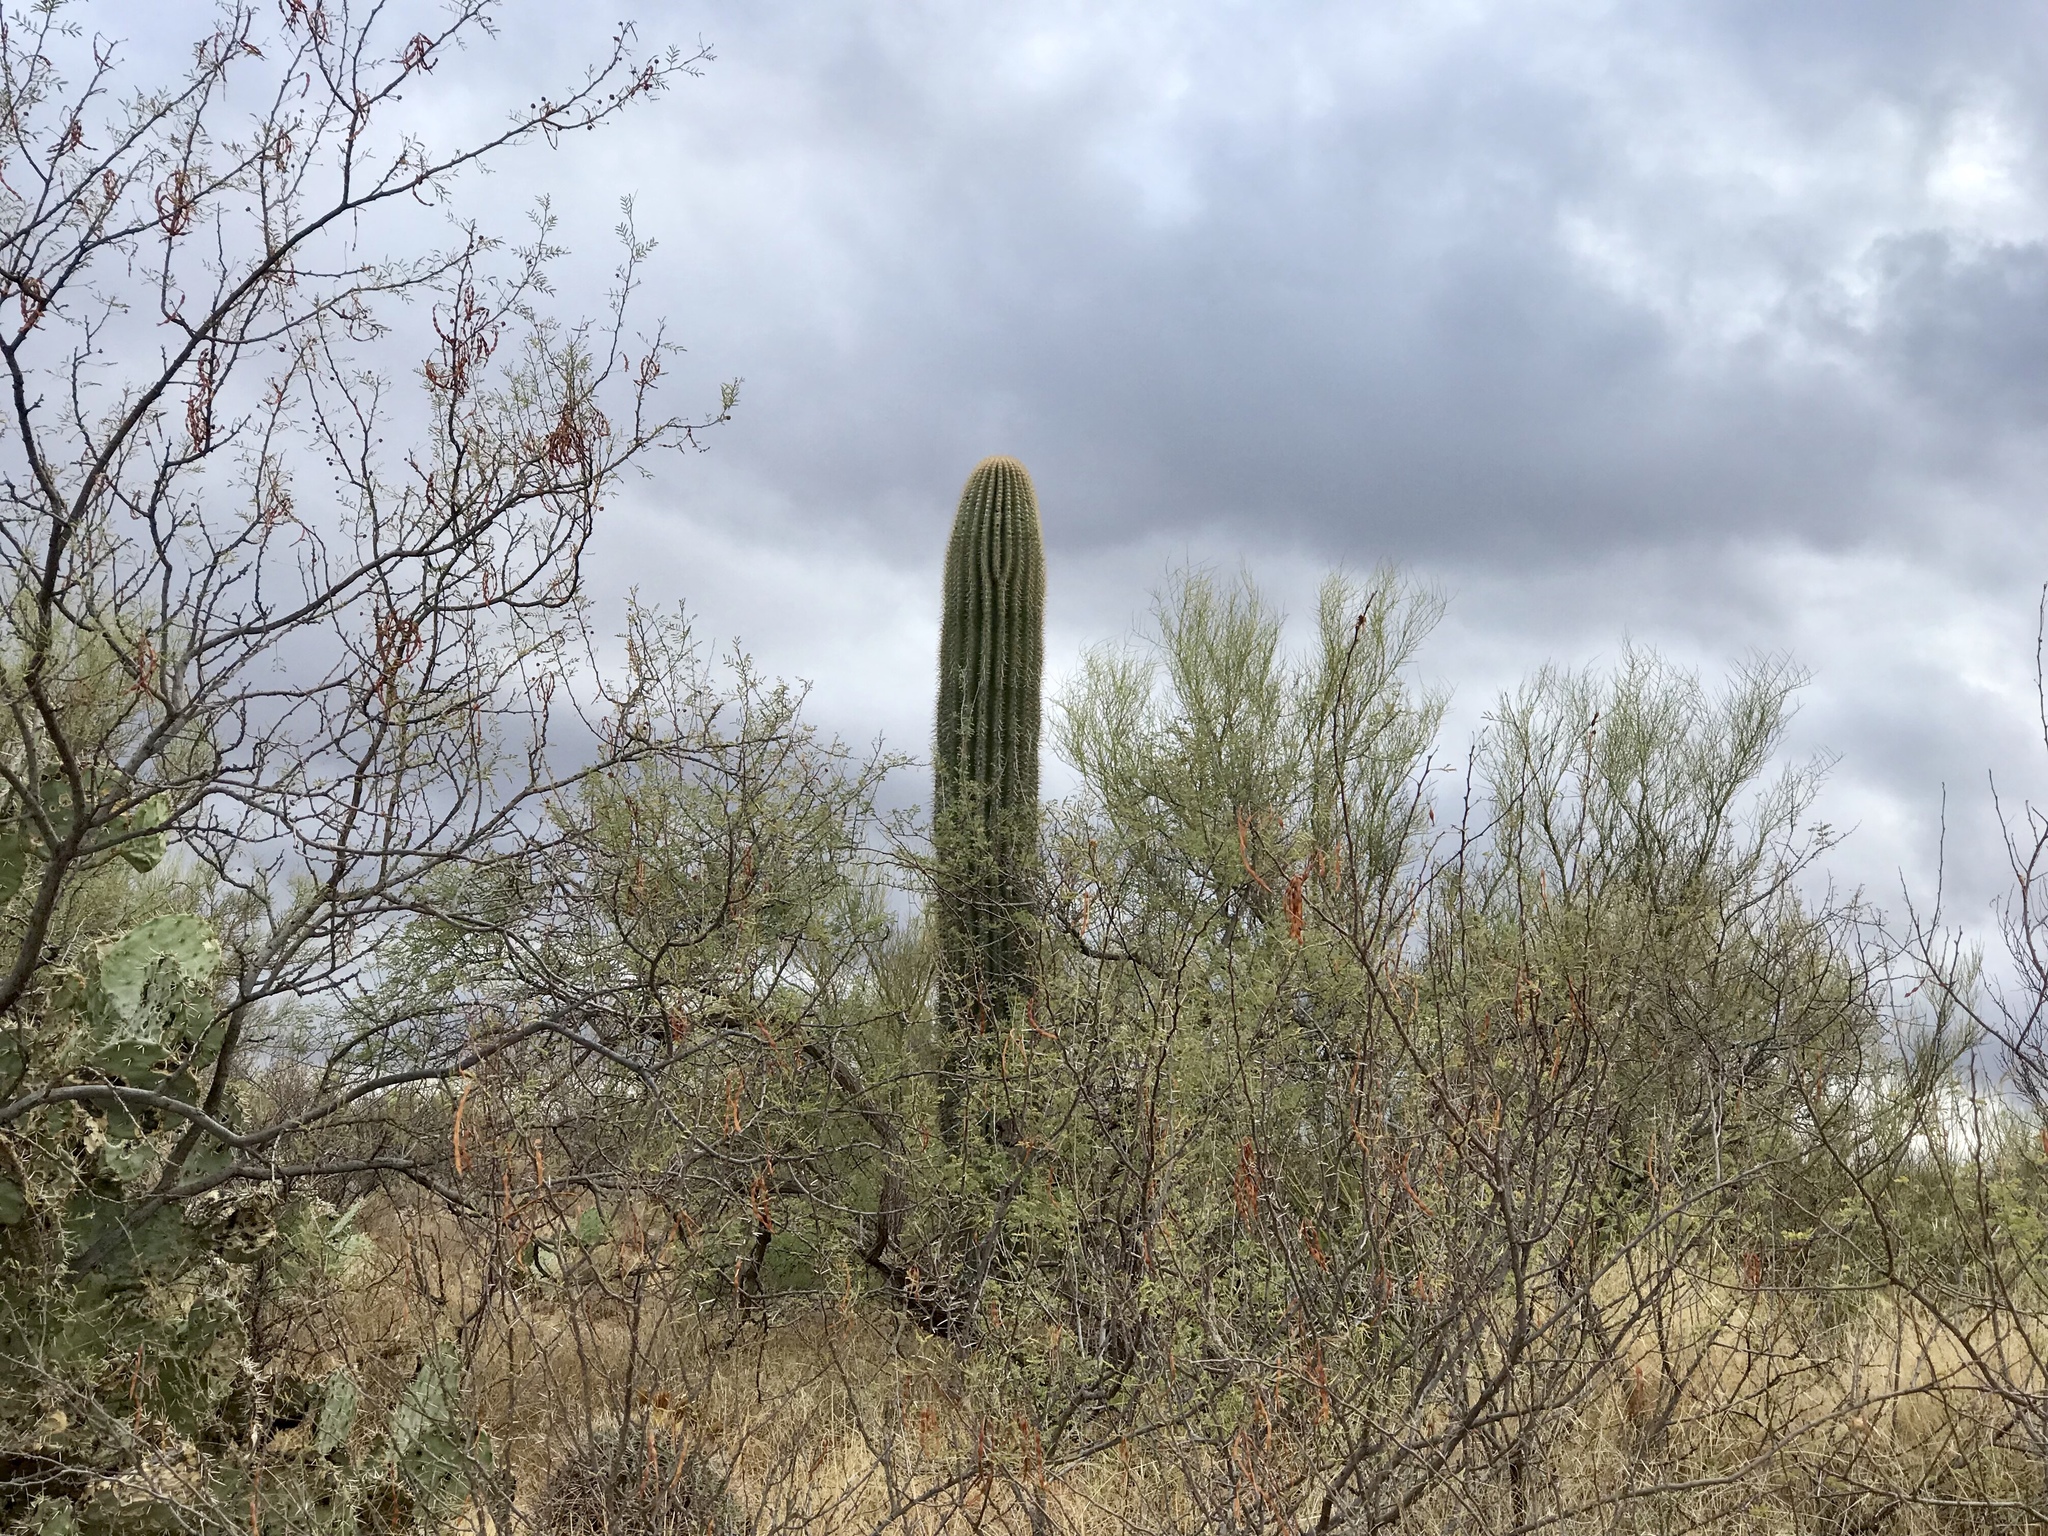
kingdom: Plantae
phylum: Tracheophyta
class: Magnoliopsida
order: Caryophyllales
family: Cactaceae
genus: Carnegiea
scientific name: Carnegiea gigantea
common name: Saguaro
